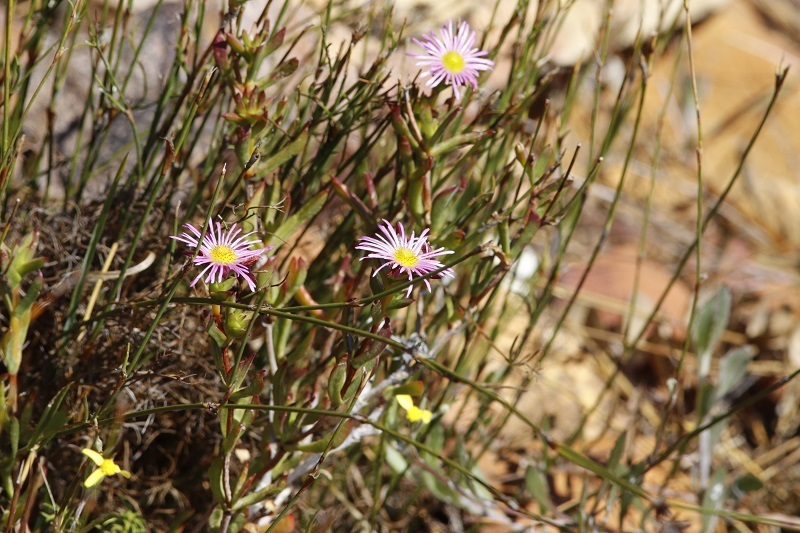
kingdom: Plantae
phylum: Tracheophyta
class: Magnoliopsida
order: Caryophyllales
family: Aizoaceae
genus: Erepsia
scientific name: Erepsia anceps
